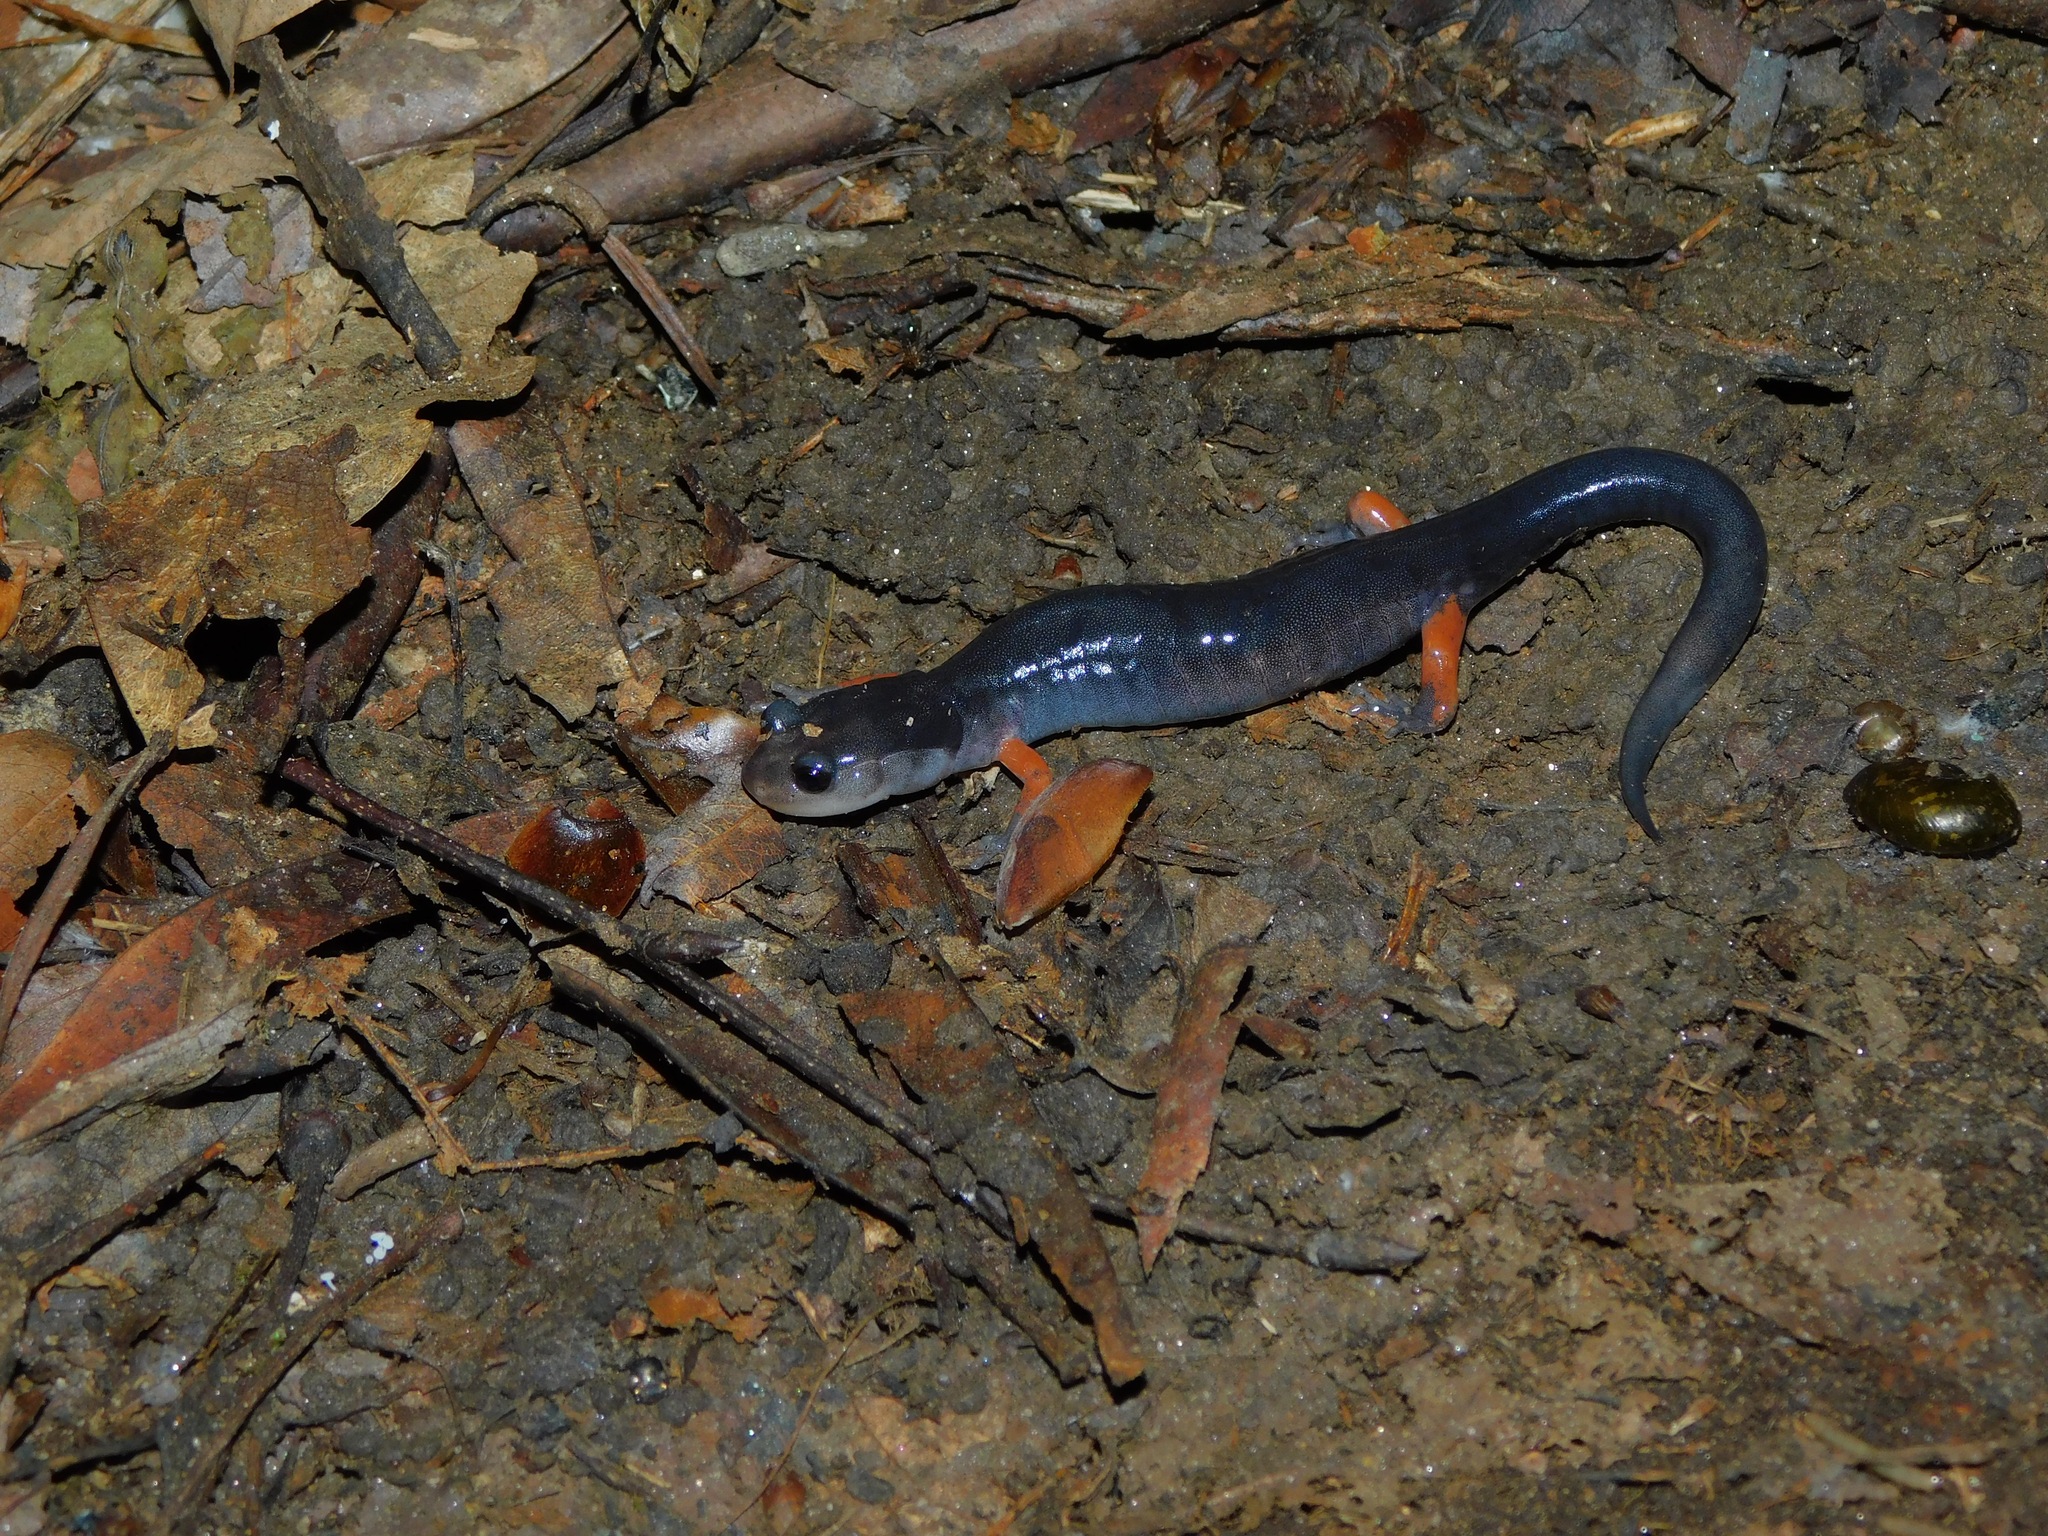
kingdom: Animalia
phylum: Chordata
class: Amphibia
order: Caudata
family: Plethodontidae
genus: Plethodon
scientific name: Plethodon shermani
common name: Red-legged salamander
